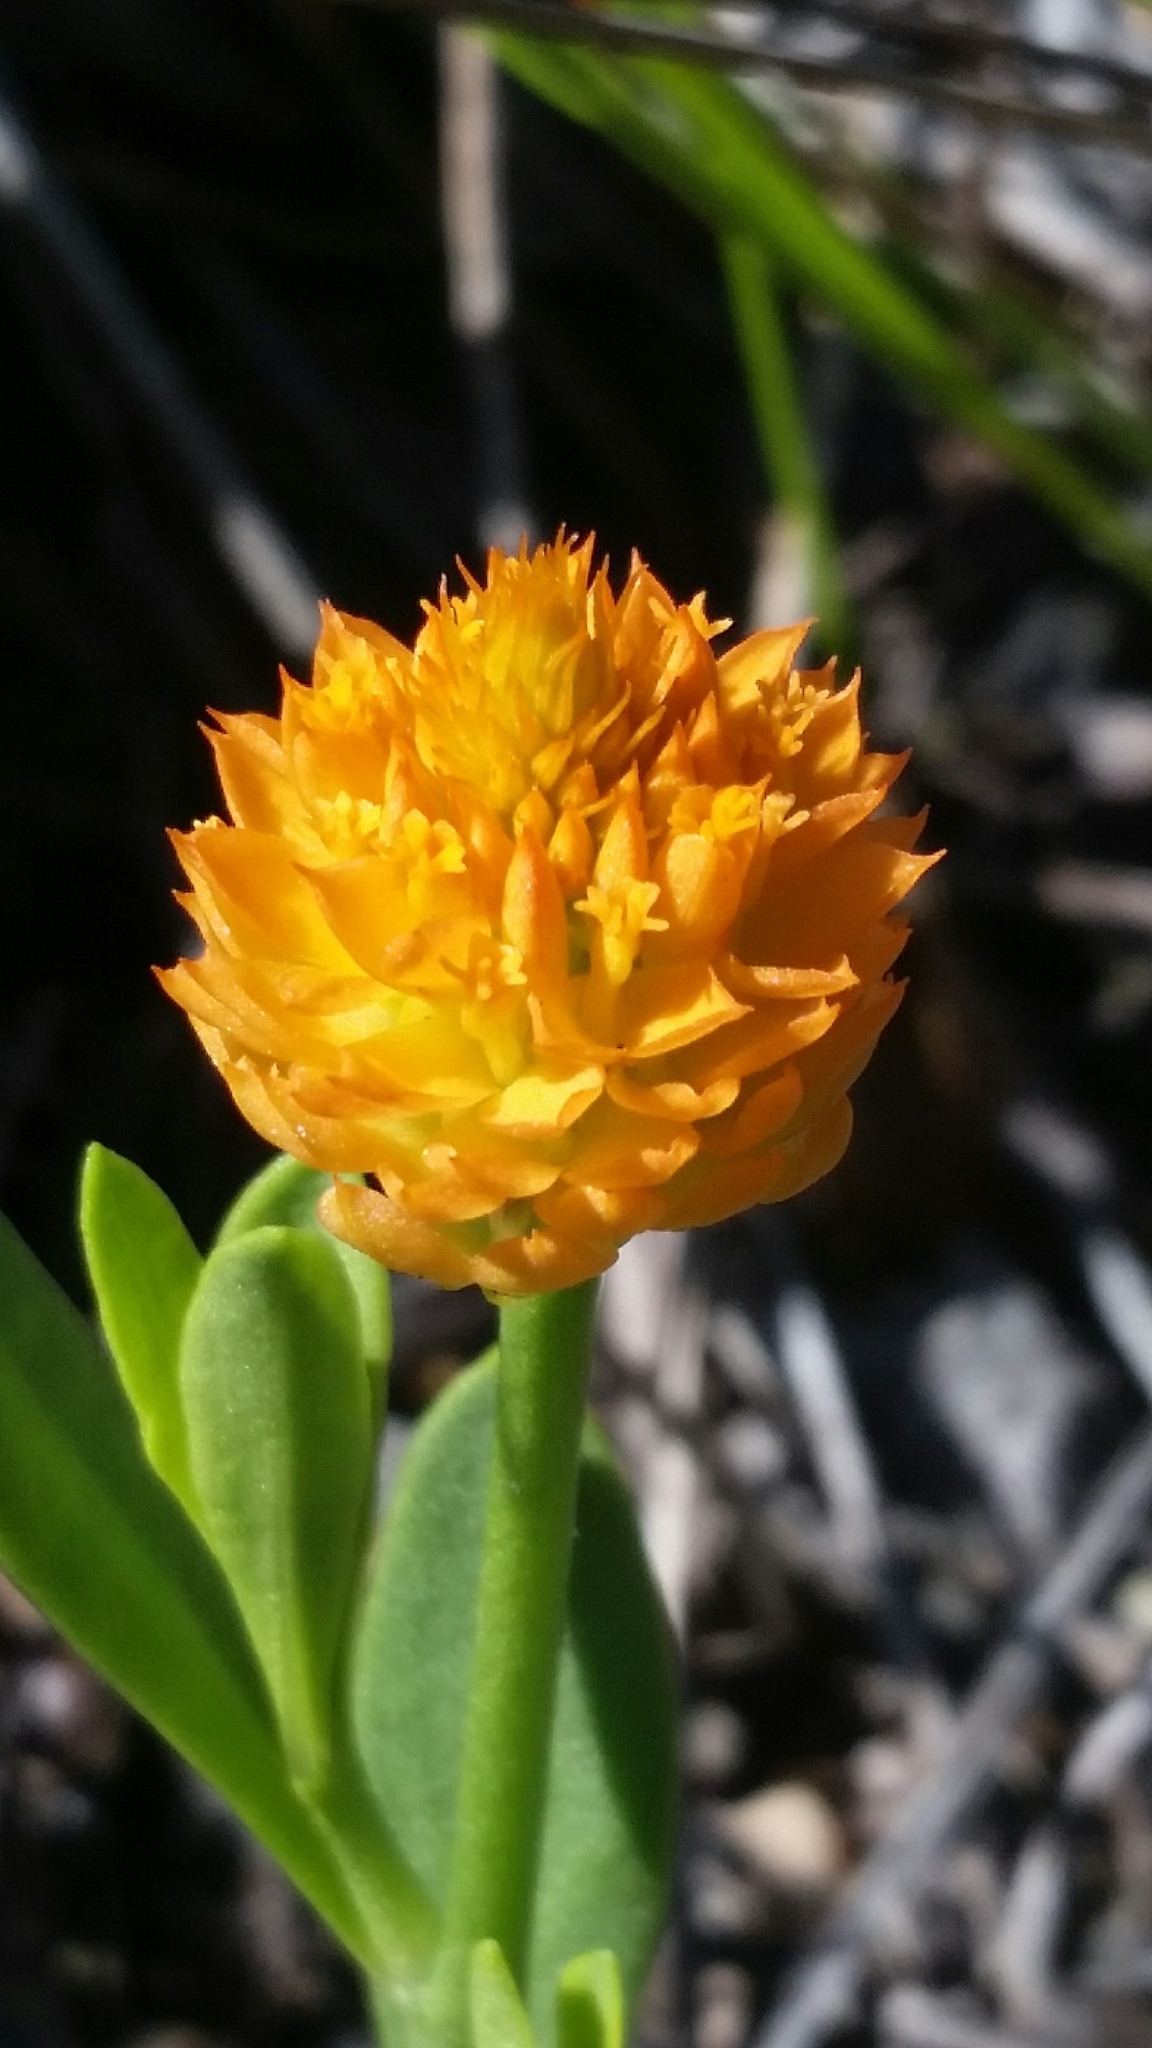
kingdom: Plantae
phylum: Tracheophyta
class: Magnoliopsida
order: Fabales
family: Polygalaceae
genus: Polygala
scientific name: Polygala lutea
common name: Orange milkwort
